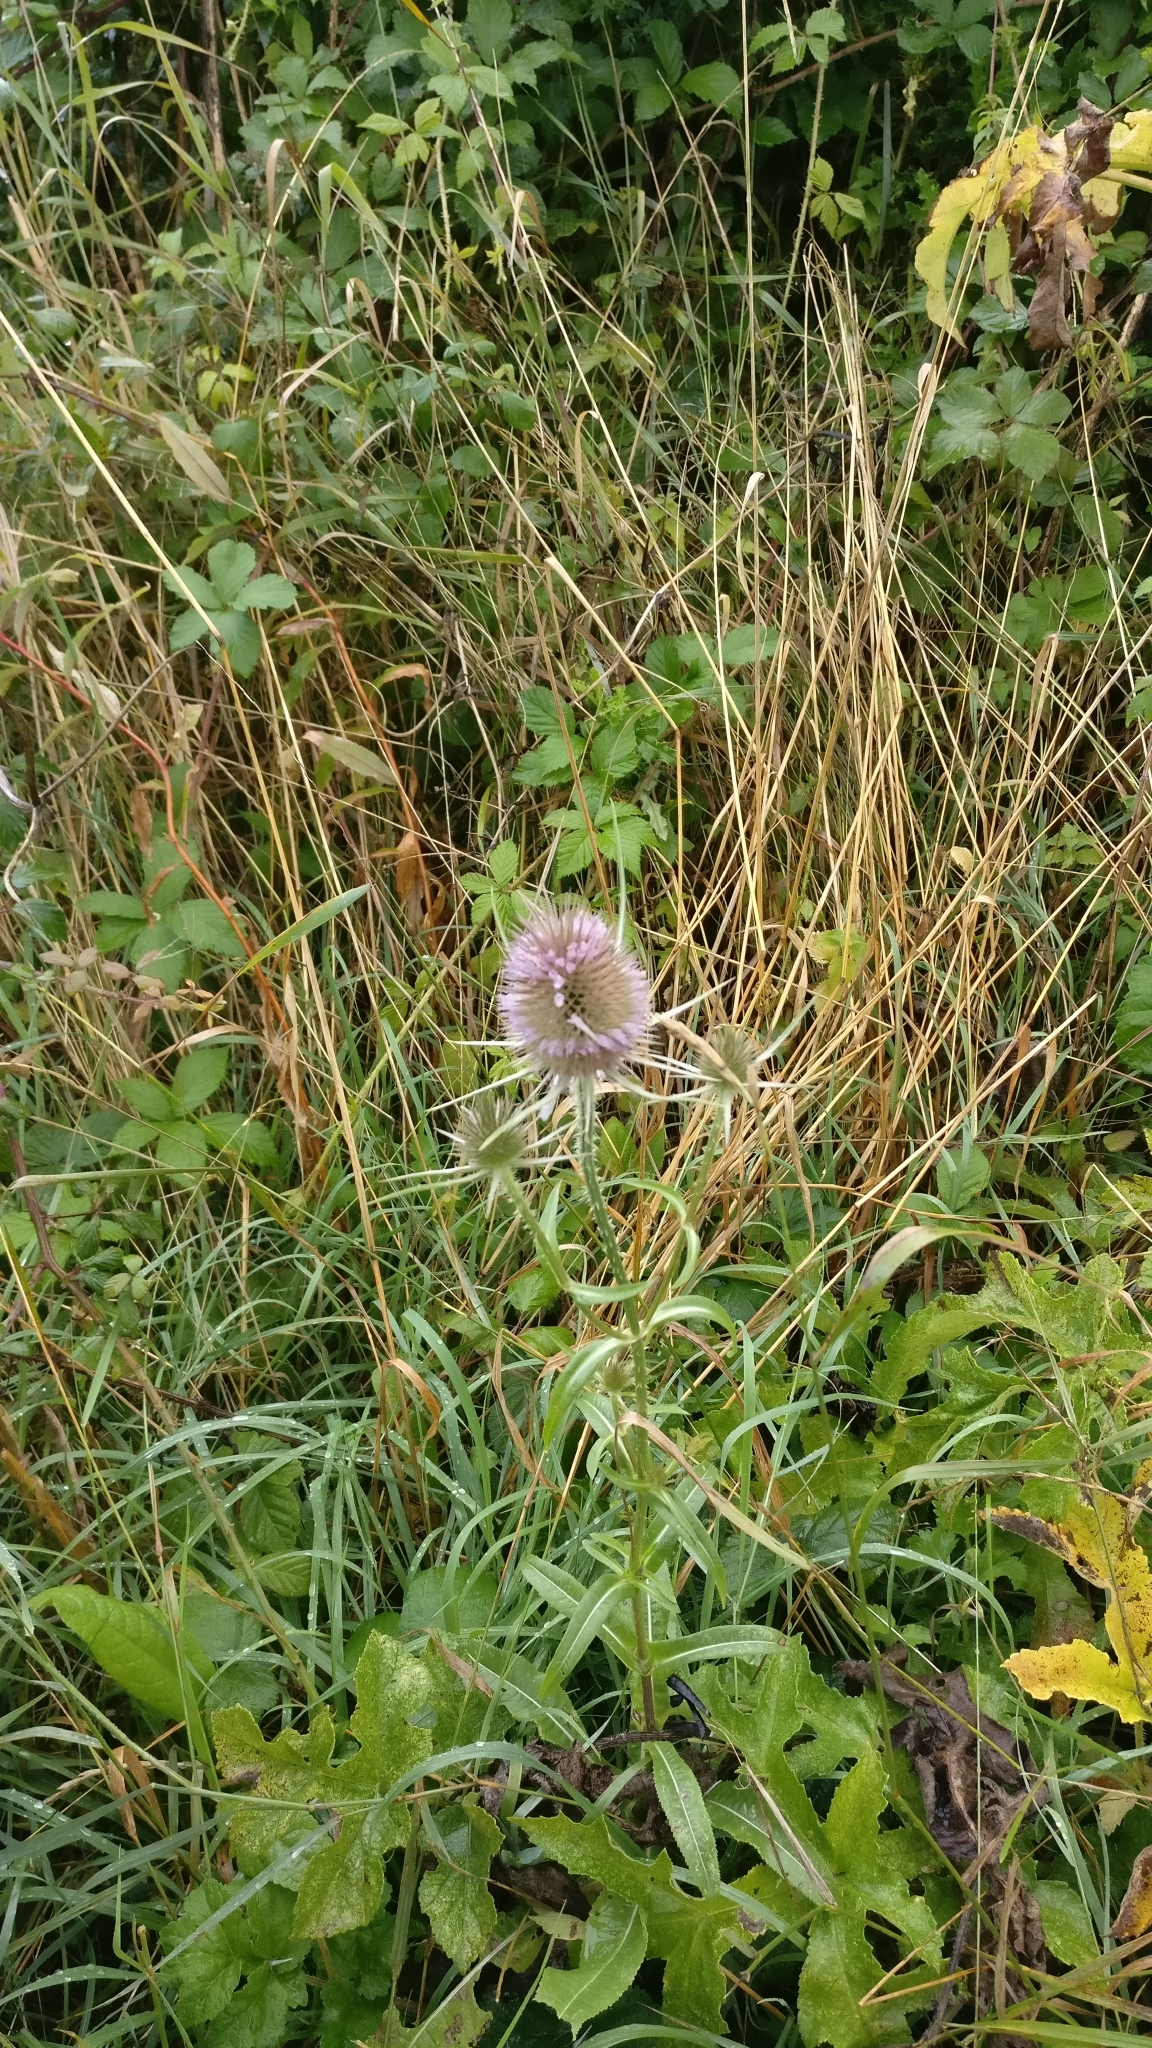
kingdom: Plantae
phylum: Tracheophyta
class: Magnoliopsida
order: Dipsacales
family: Caprifoliaceae
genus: Dipsacus
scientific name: Dipsacus fullonum
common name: Teasel
